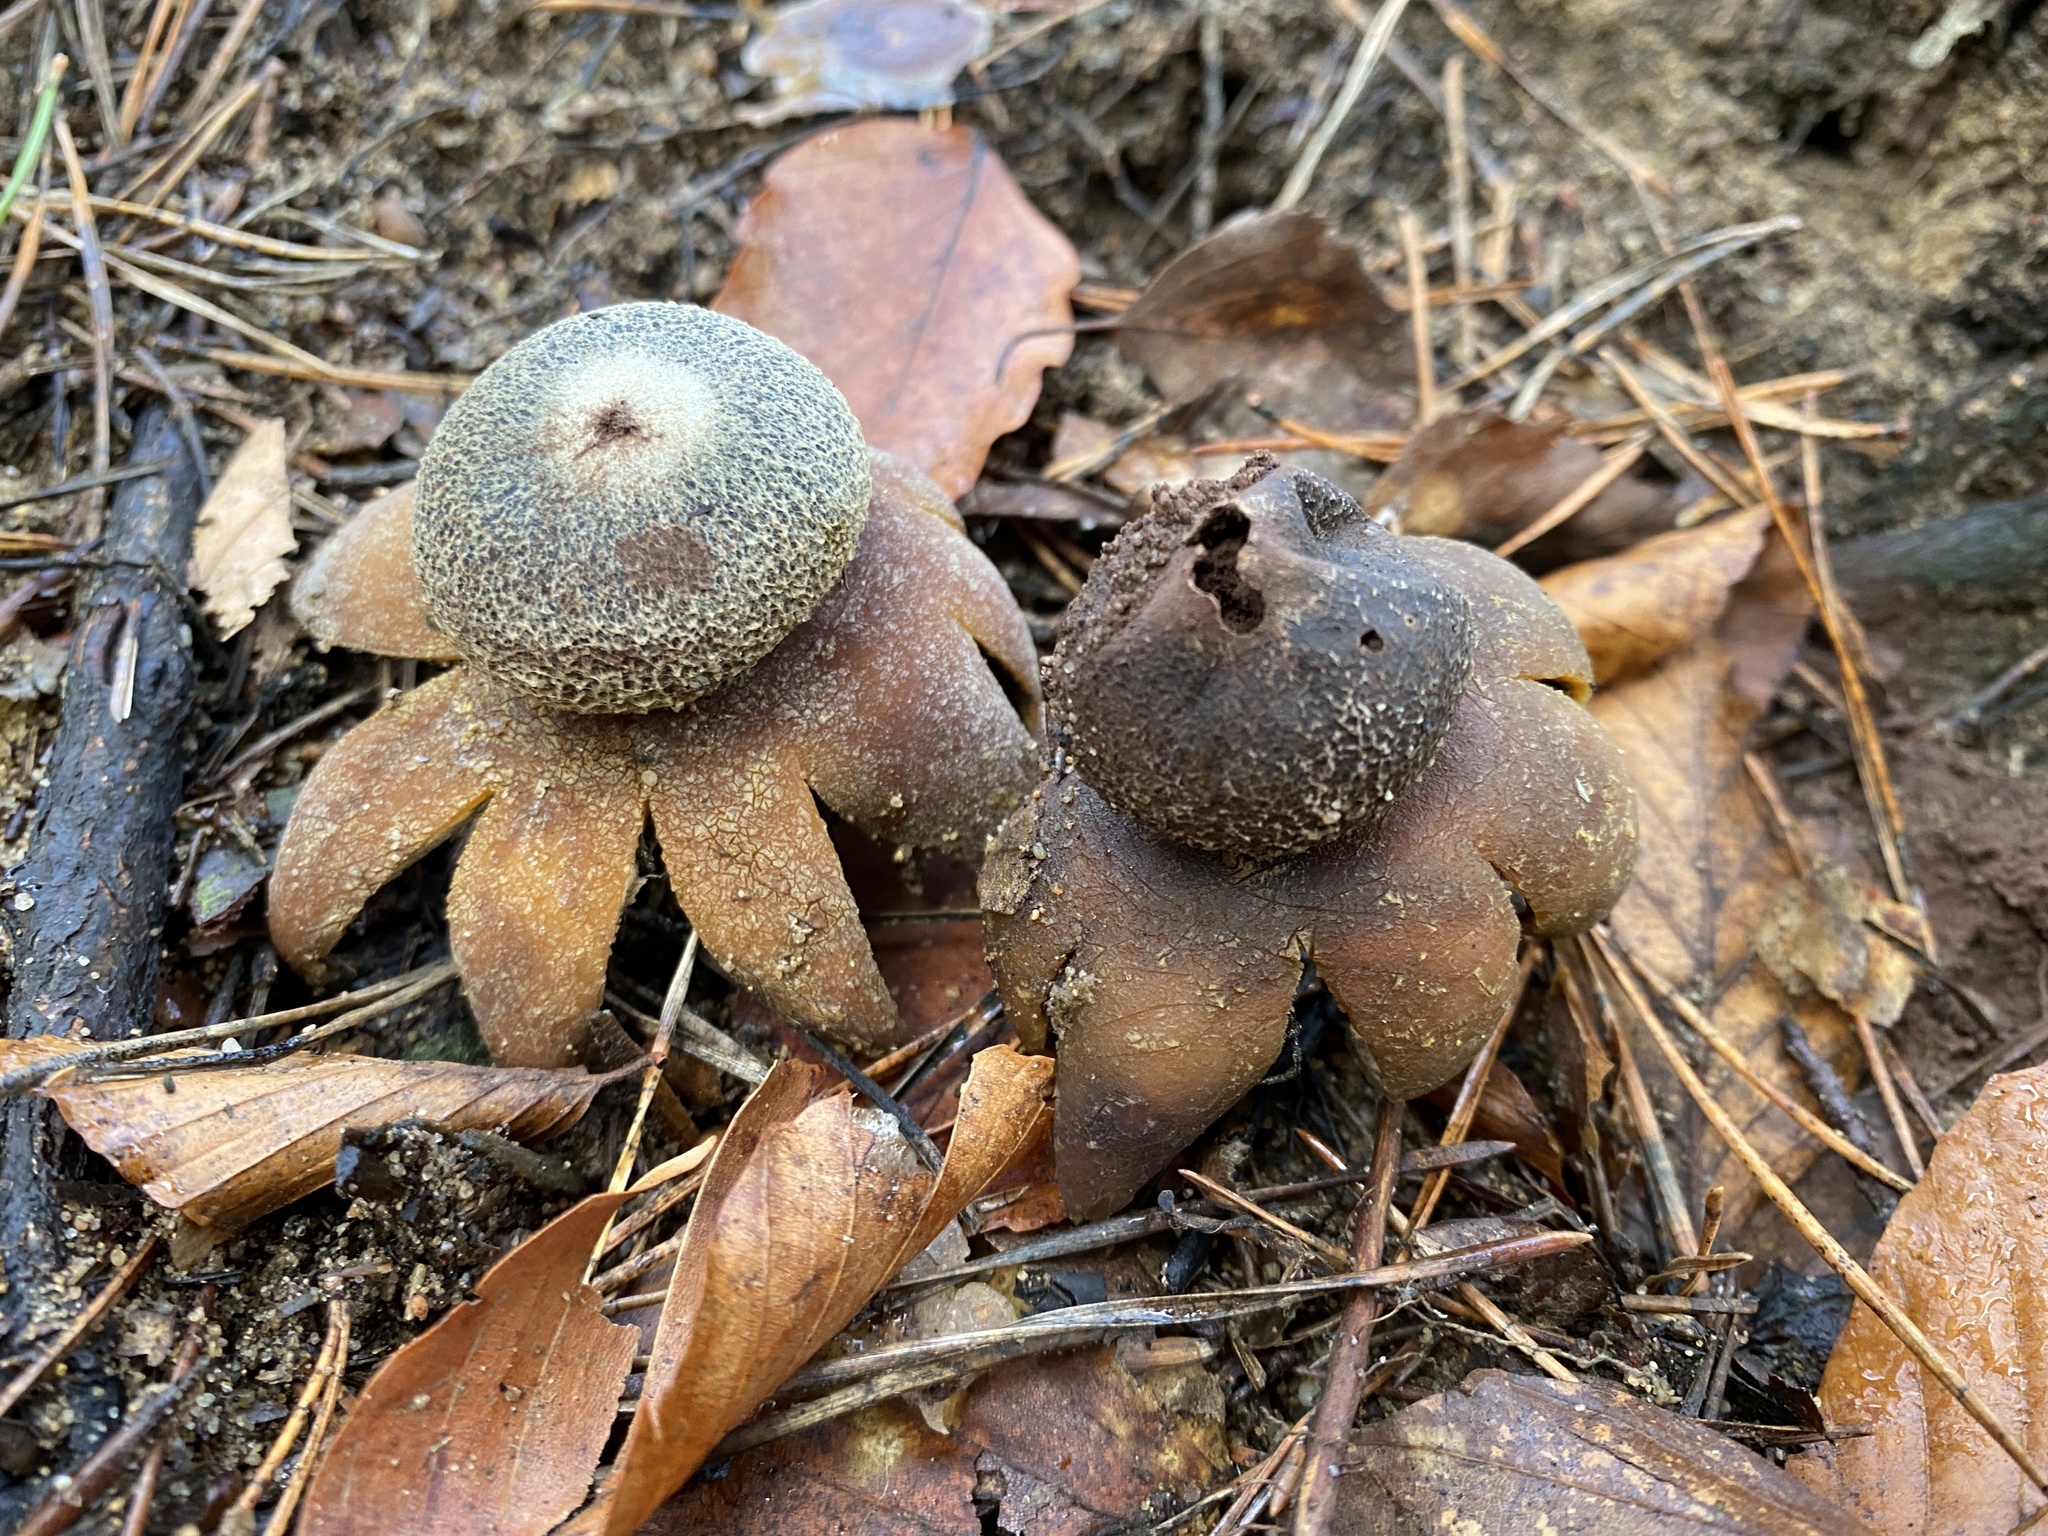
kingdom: Fungi
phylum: Basidiomycota
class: Agaricomycetes
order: Boletales
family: Diplocystidiaceae
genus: Astraeus
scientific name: Astraeus hygrometricus
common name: Barometer earthstar
